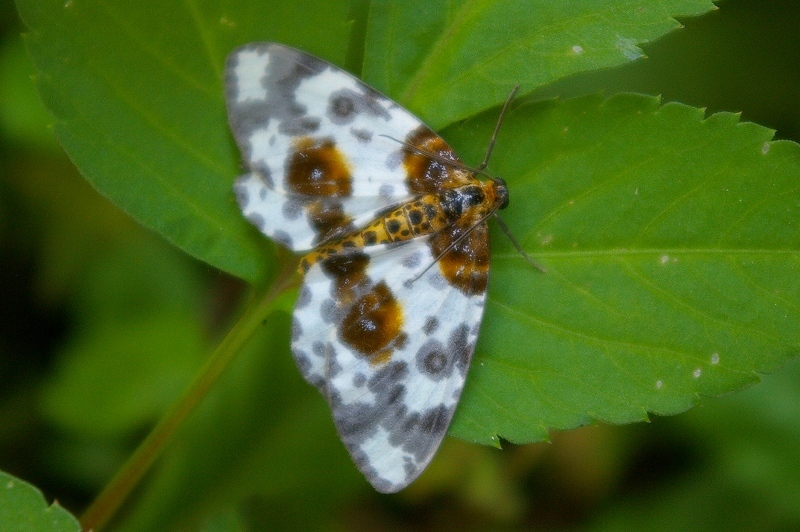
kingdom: Animalia
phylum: Arthropoda
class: Insecta
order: Lepidoptera
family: Geometridae
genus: Abraxas
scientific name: Abraxas niphonibia
